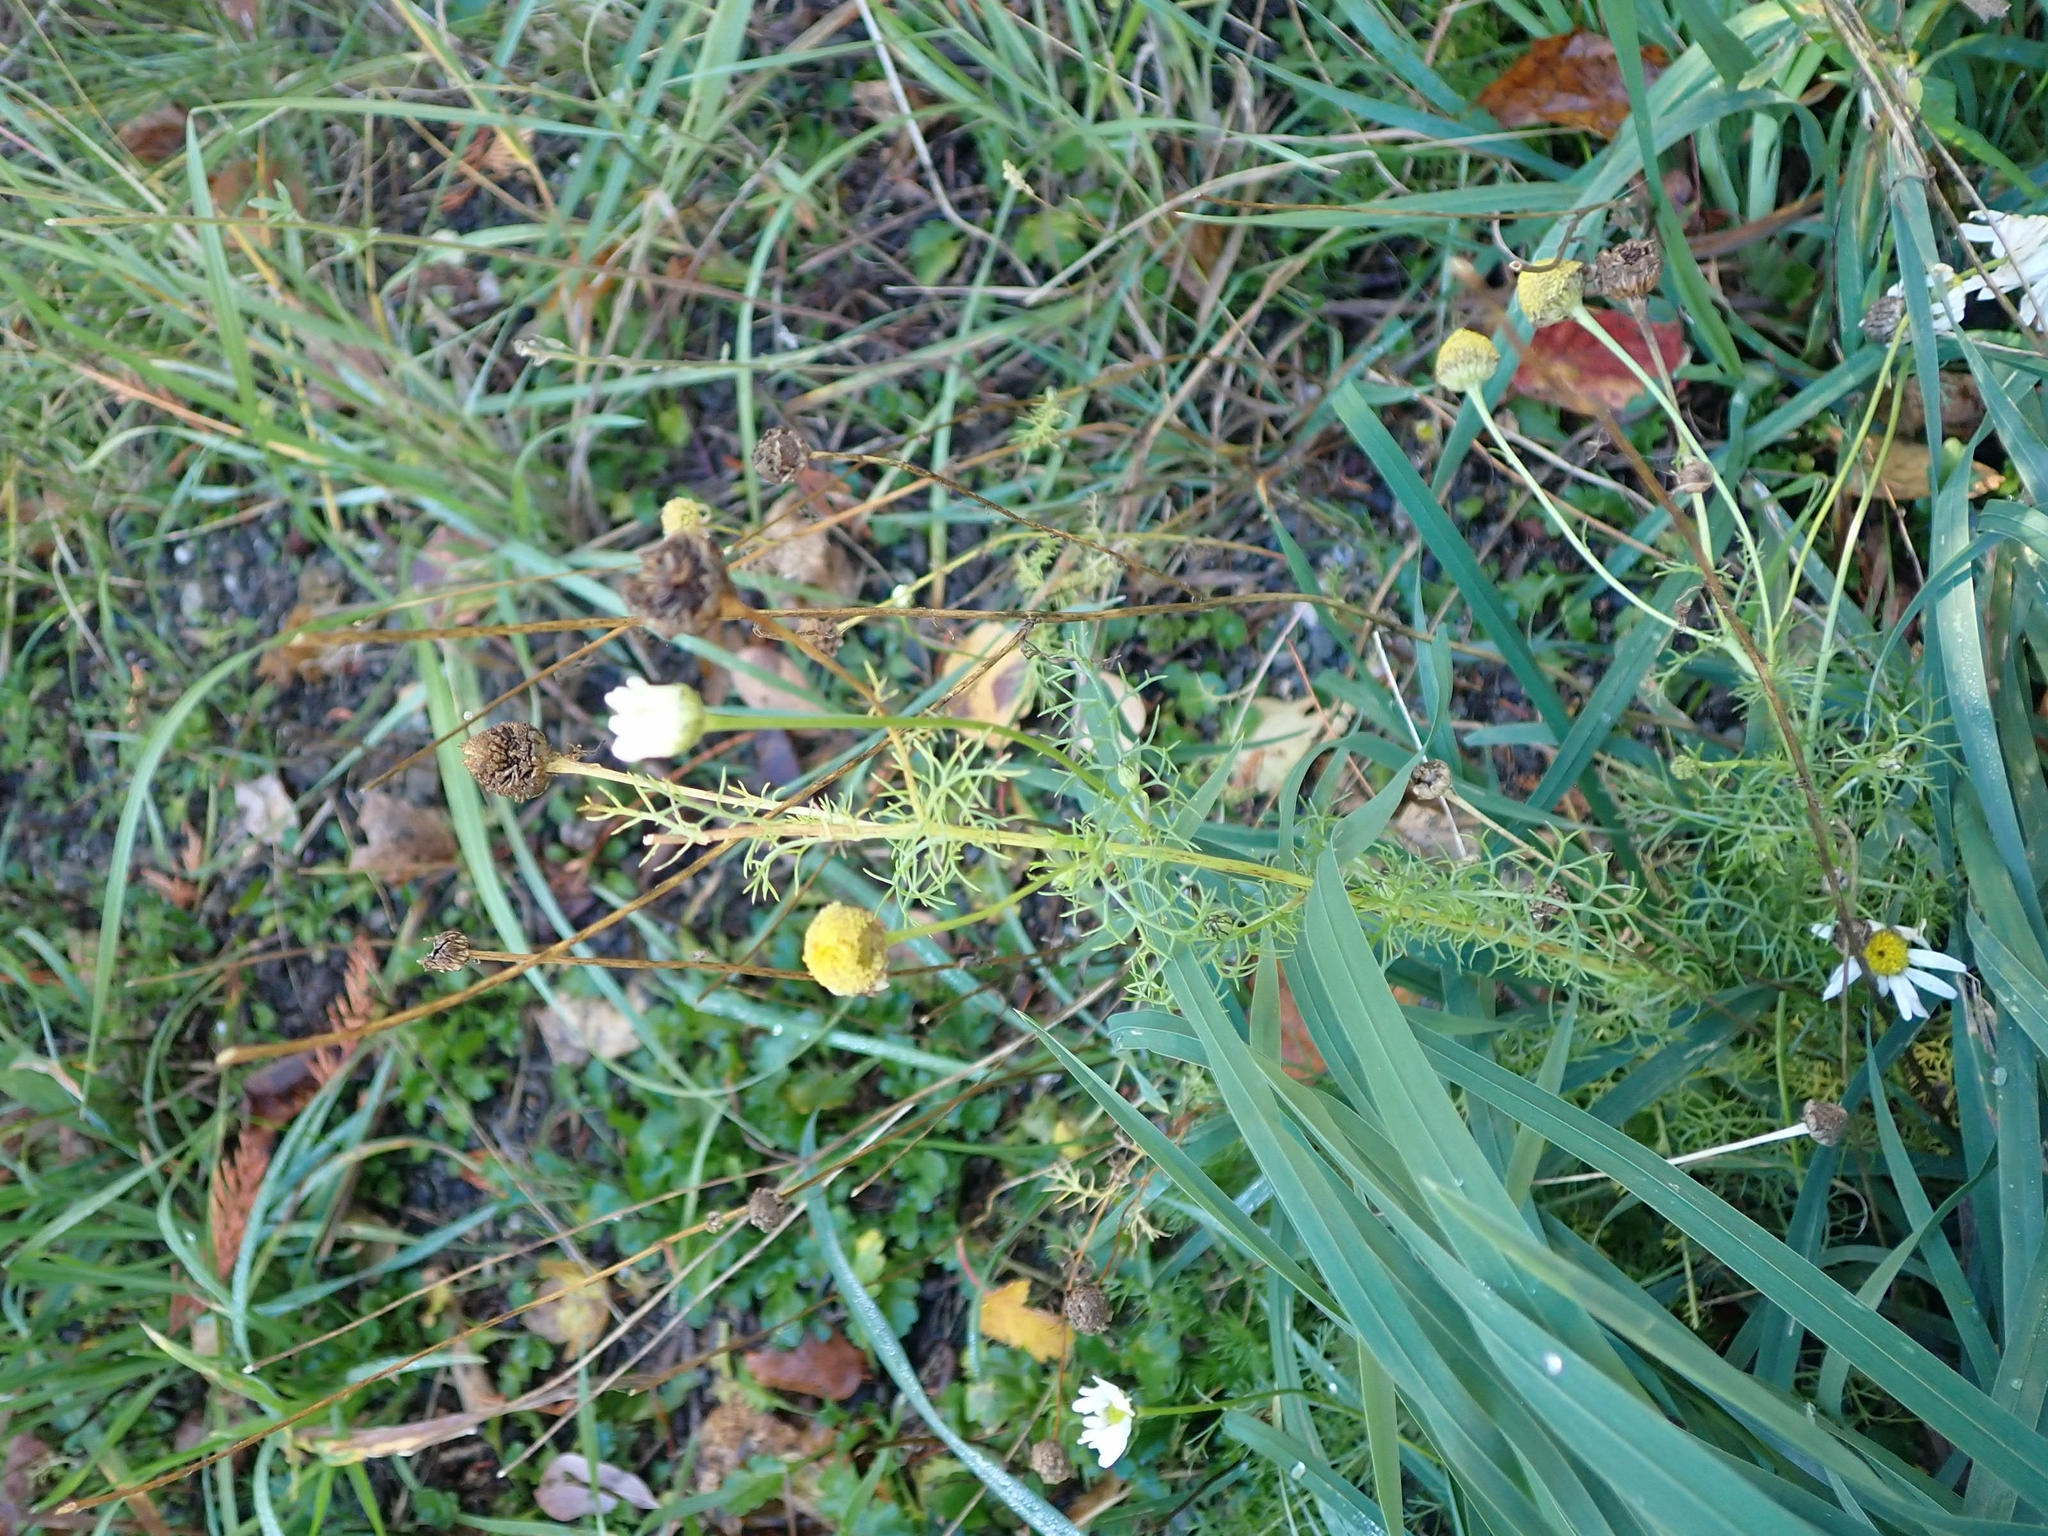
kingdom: Plantae
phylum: Tracheophyta
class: Magnoliopsida
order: Asterales
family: Asteraceae
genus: Tripleurospermum
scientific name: Tripleurospermum inodorum
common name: Scentless mayweed
